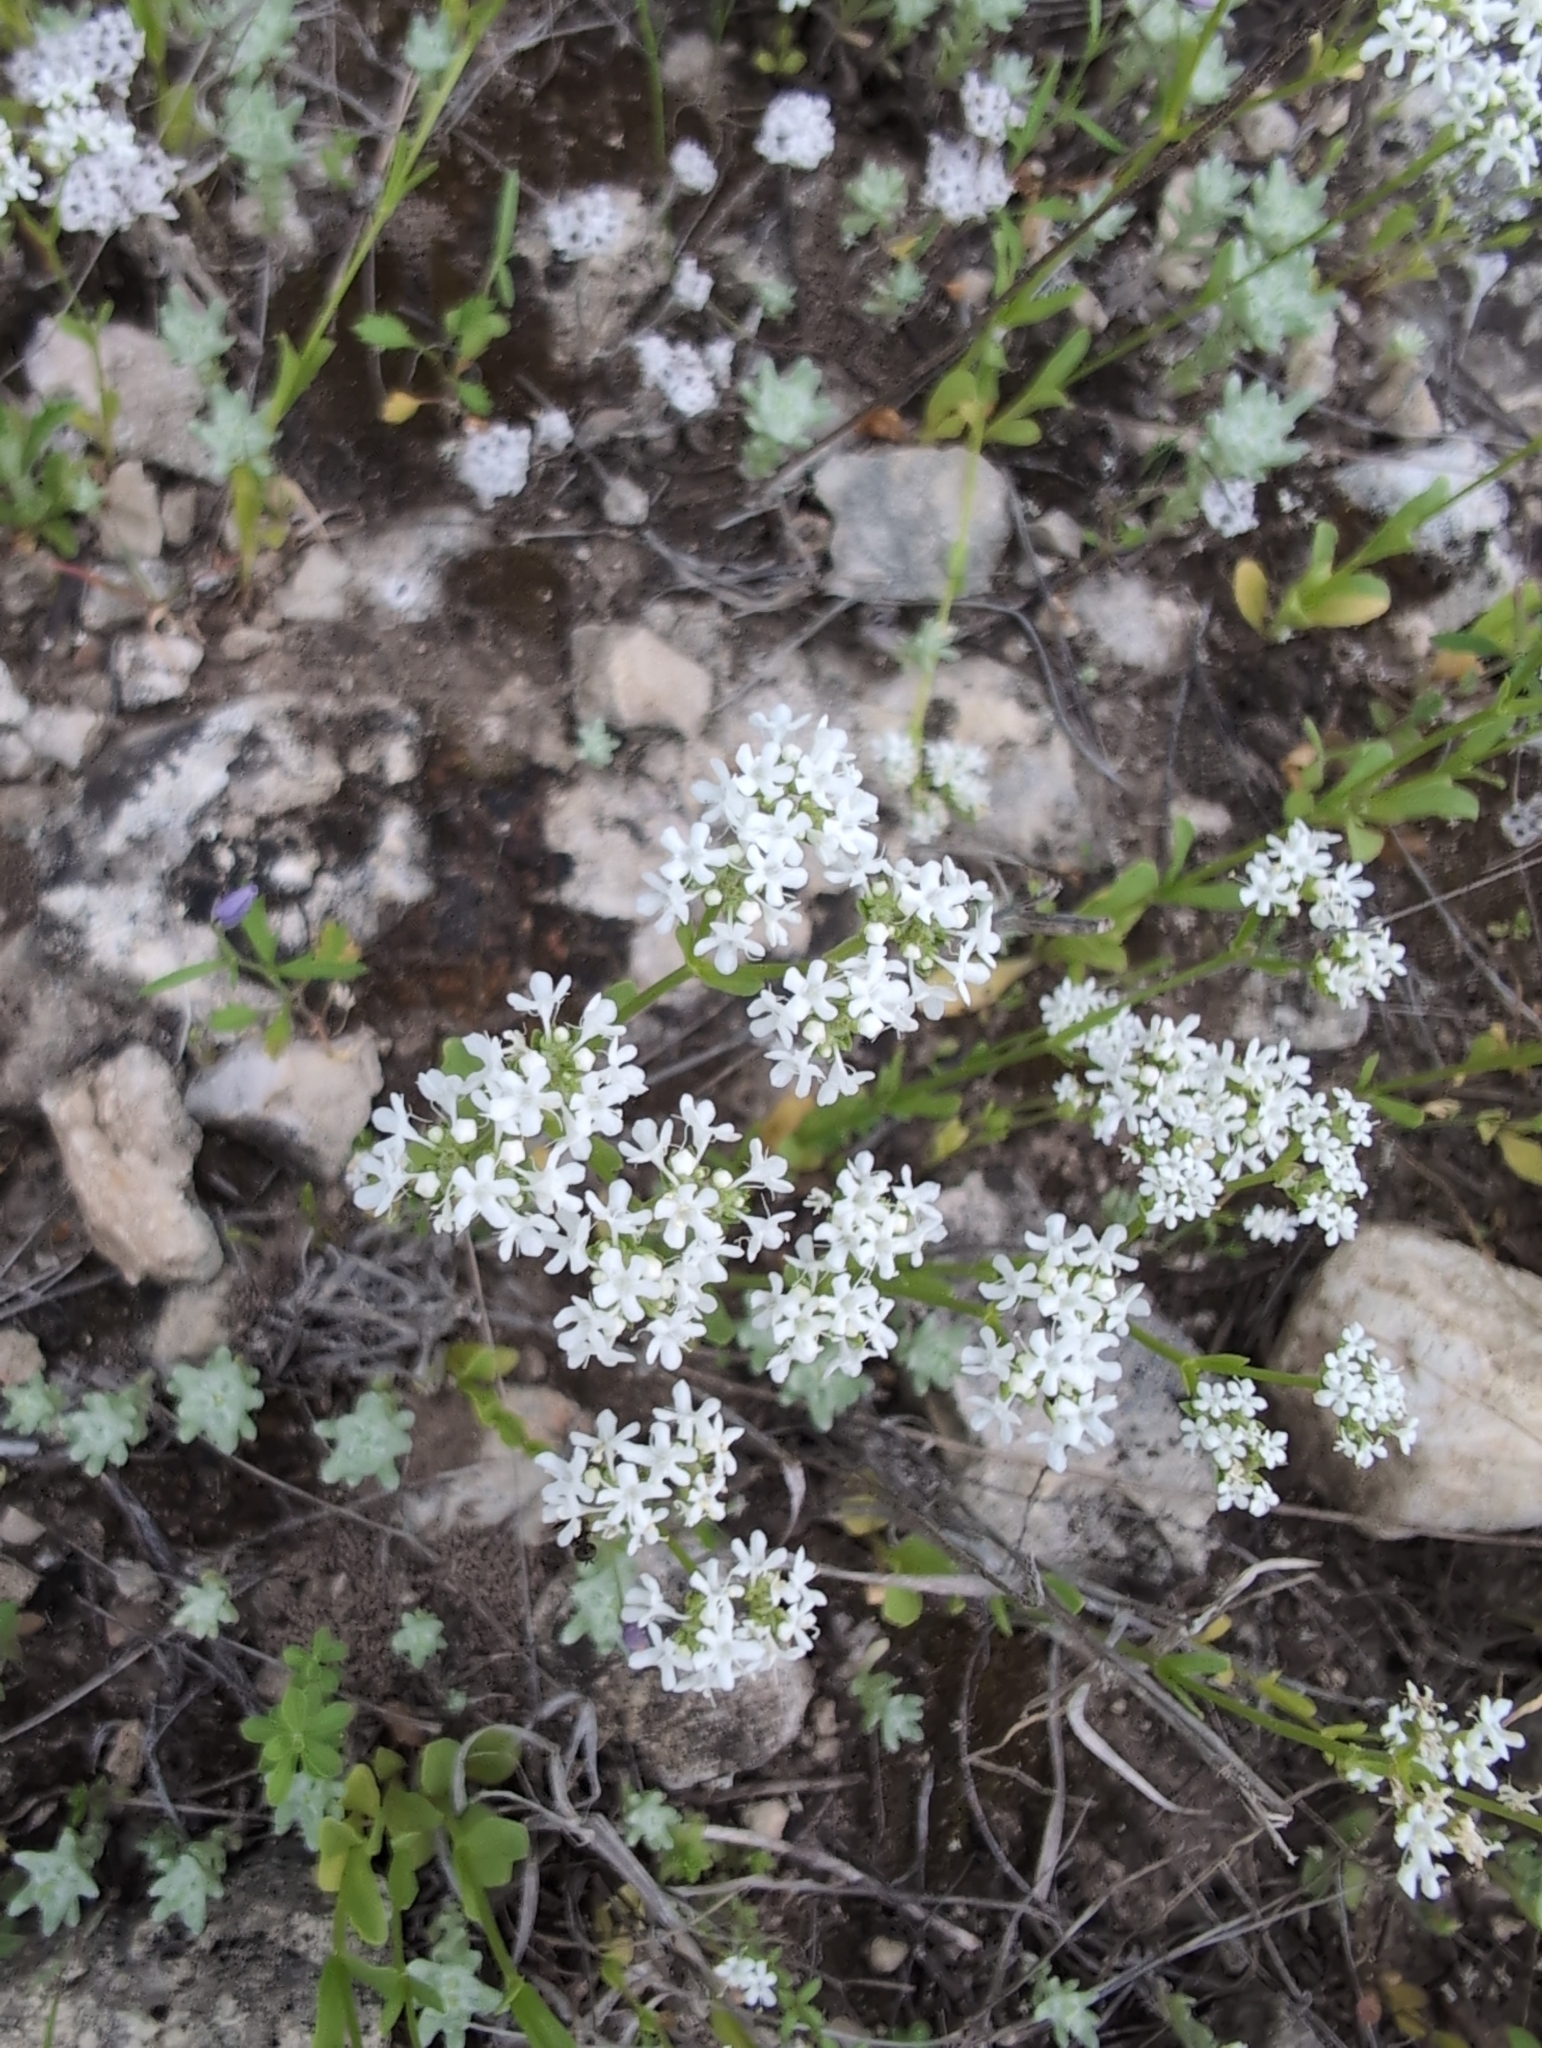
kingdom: Plantae
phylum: Tracheophyta
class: Magnoliopsida
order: Dipsacales
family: Caprifoliaceae
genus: Valerianella
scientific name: Valerianella amarella
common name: Hariy cornsalad
